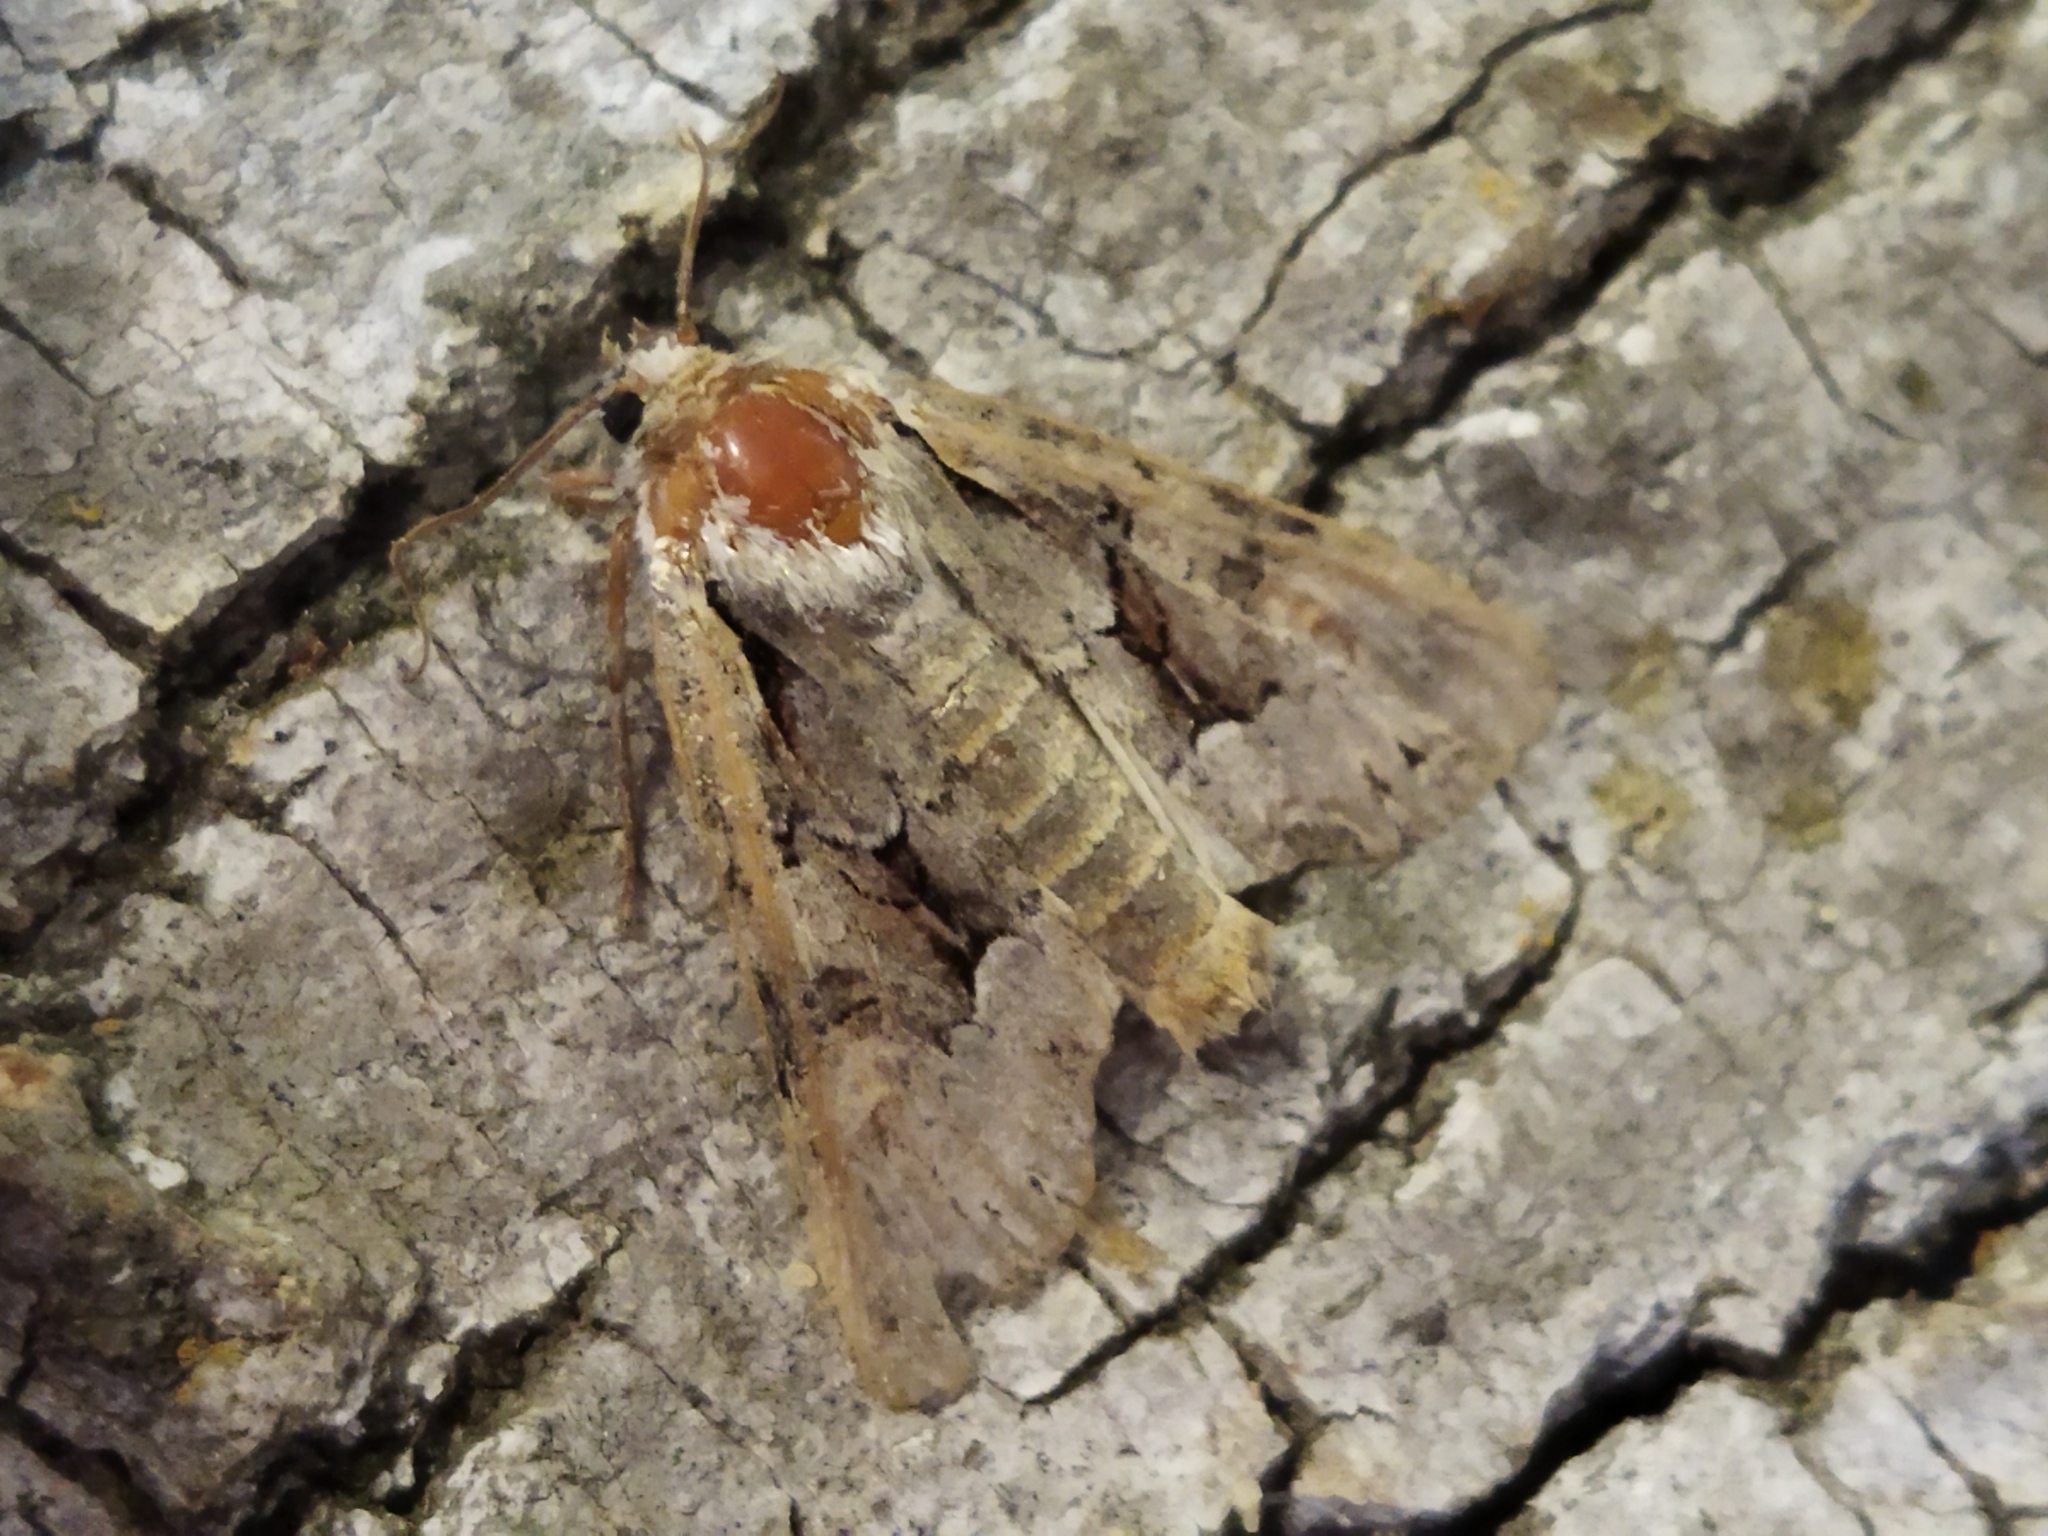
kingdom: Animalia
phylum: Arthropoda
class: Insecta
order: Lepidoptera
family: Noctuidae
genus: Lacanobia
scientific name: Lacanobia w-latinum
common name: Light brocade
